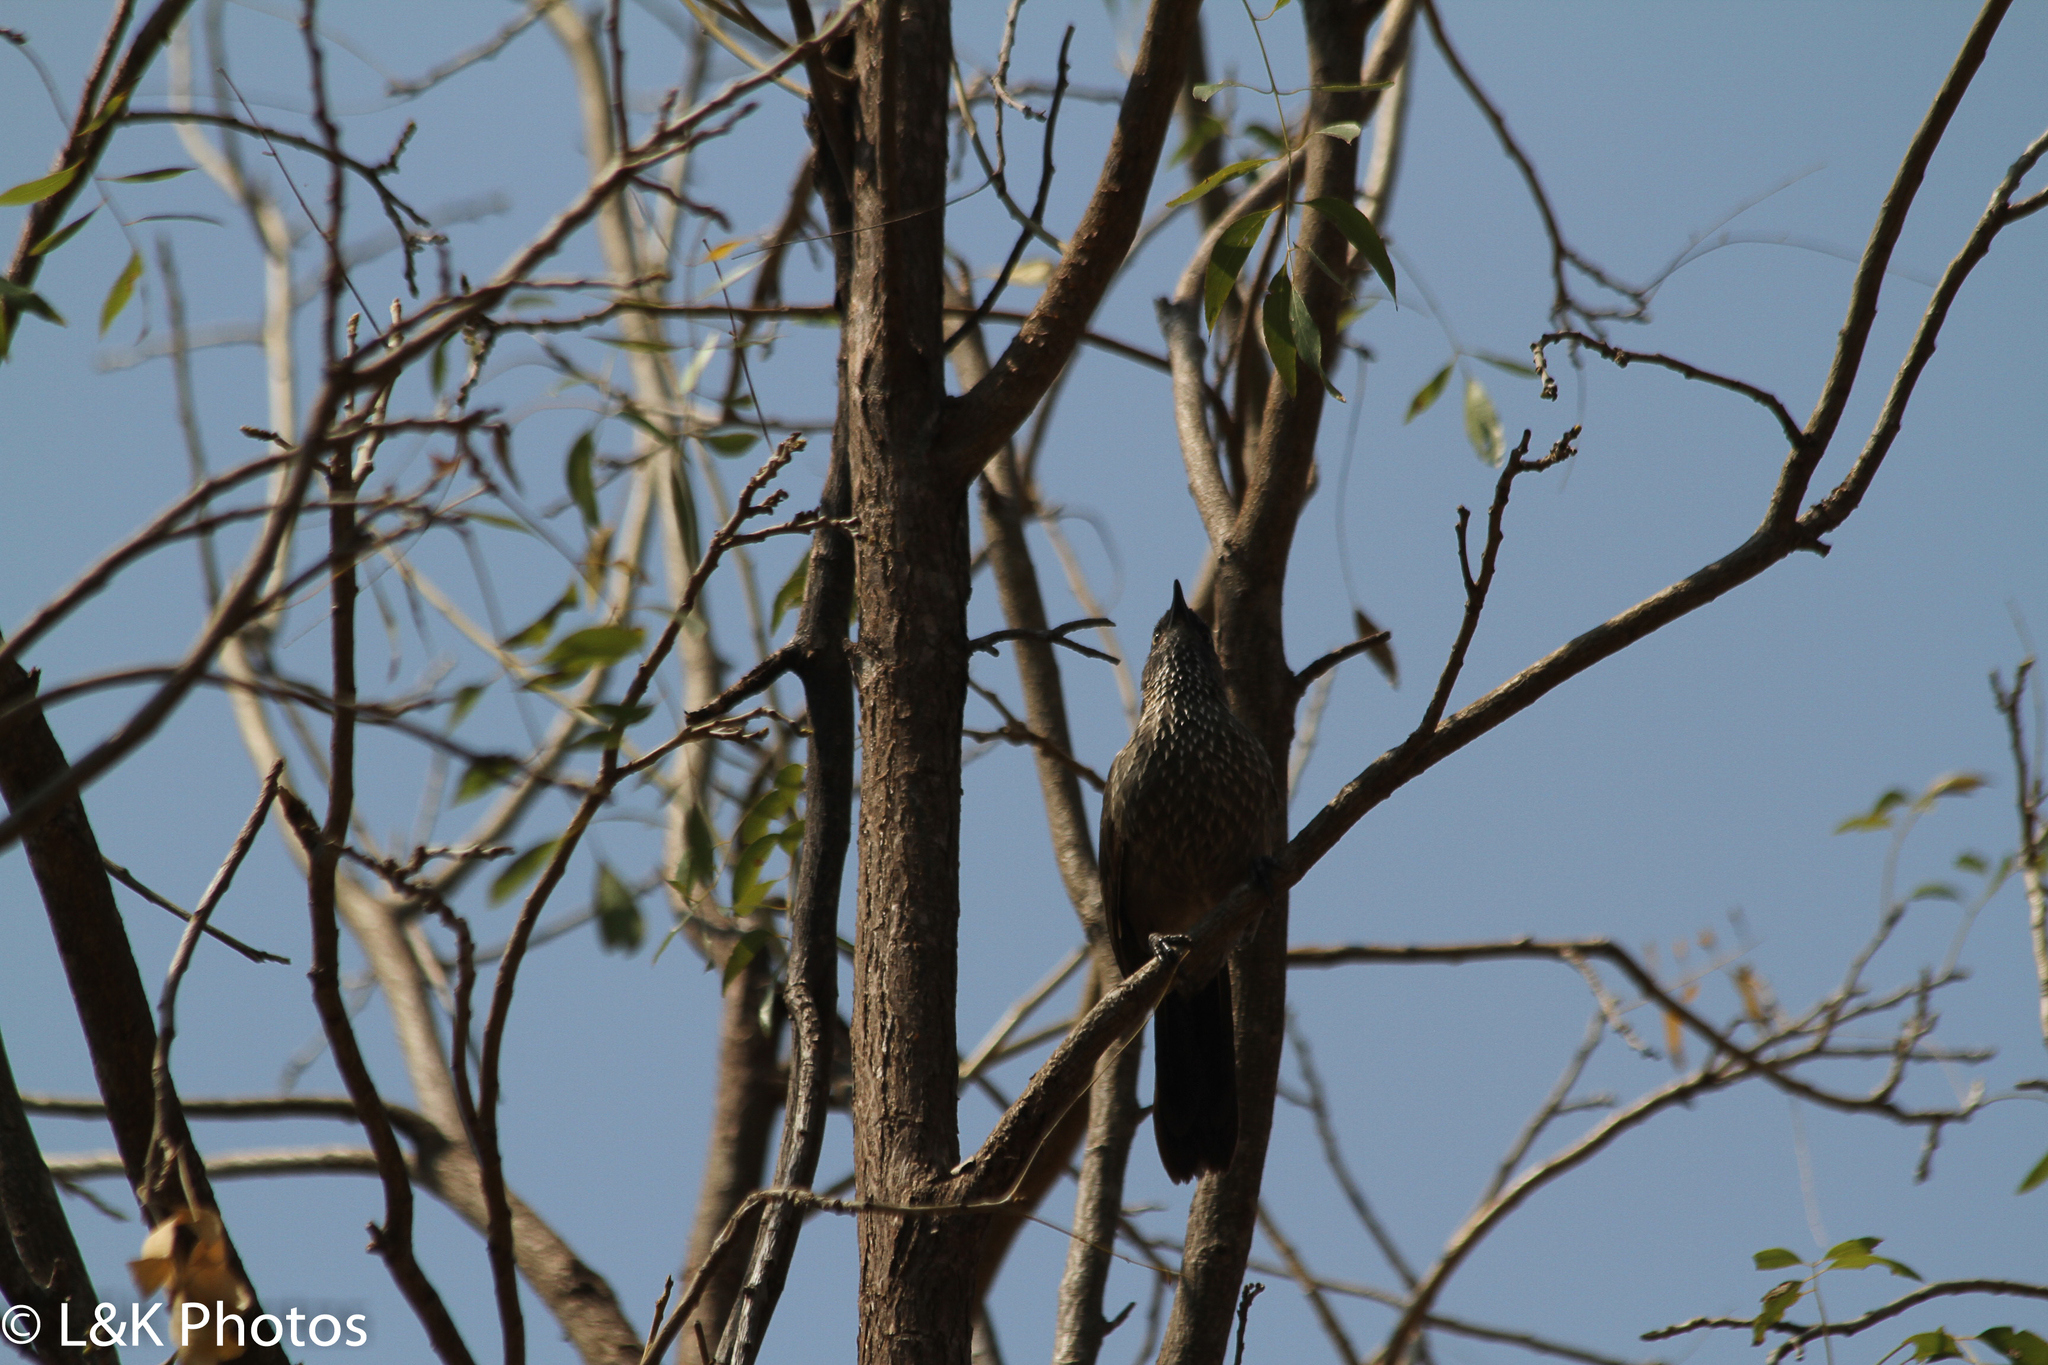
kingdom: Animalia
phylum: Chordata
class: Aves
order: Passeriformes
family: Leiothrichidae
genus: Turdoides
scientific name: Turdoides jardineii
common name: Arrow-marked babbler
